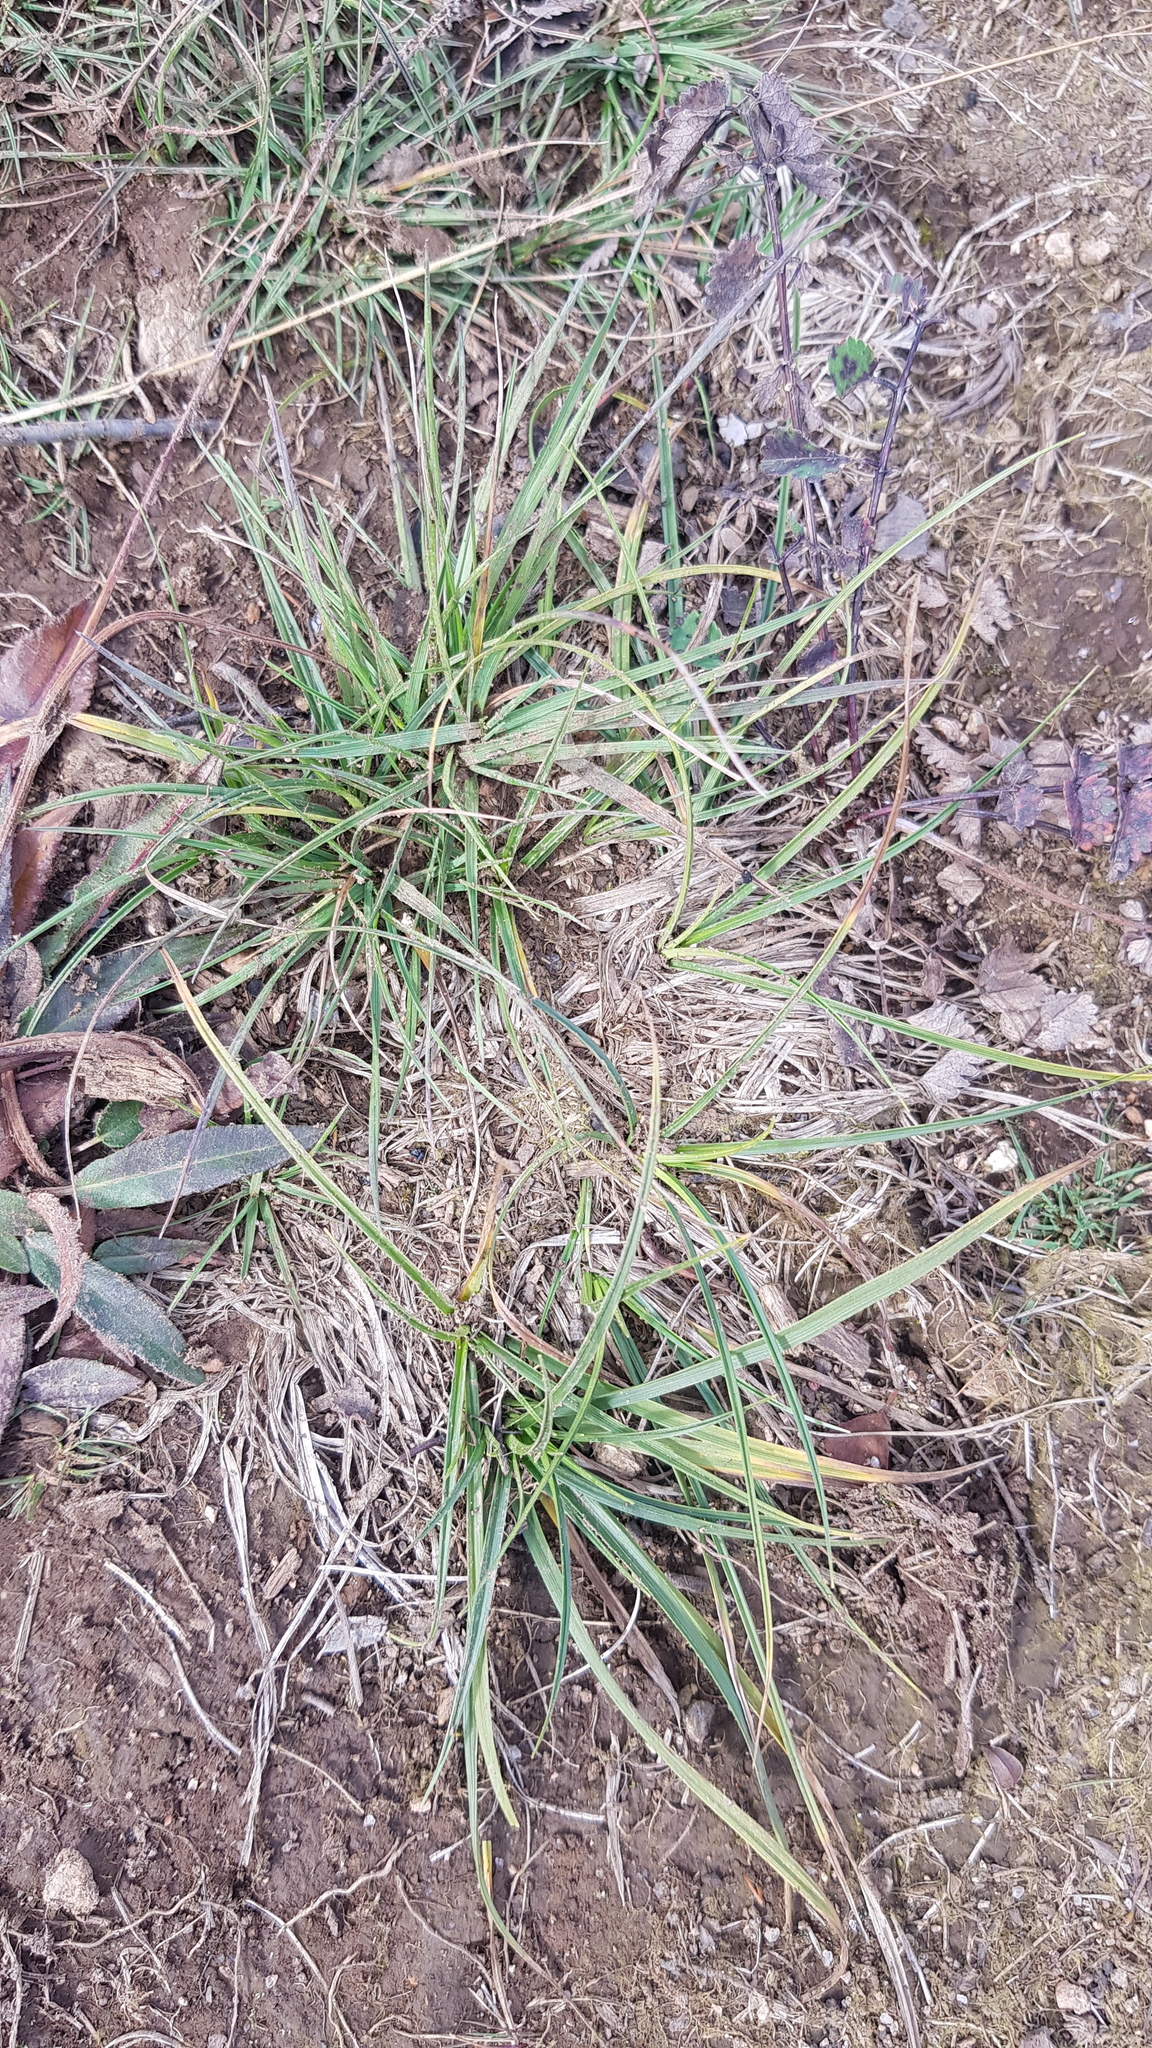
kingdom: Plantae
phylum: Tracheophyta
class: Liliopsida
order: Poales
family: Cyperaceae
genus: Carex
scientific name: Carex ericetorum
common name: Rare spring-sedge
